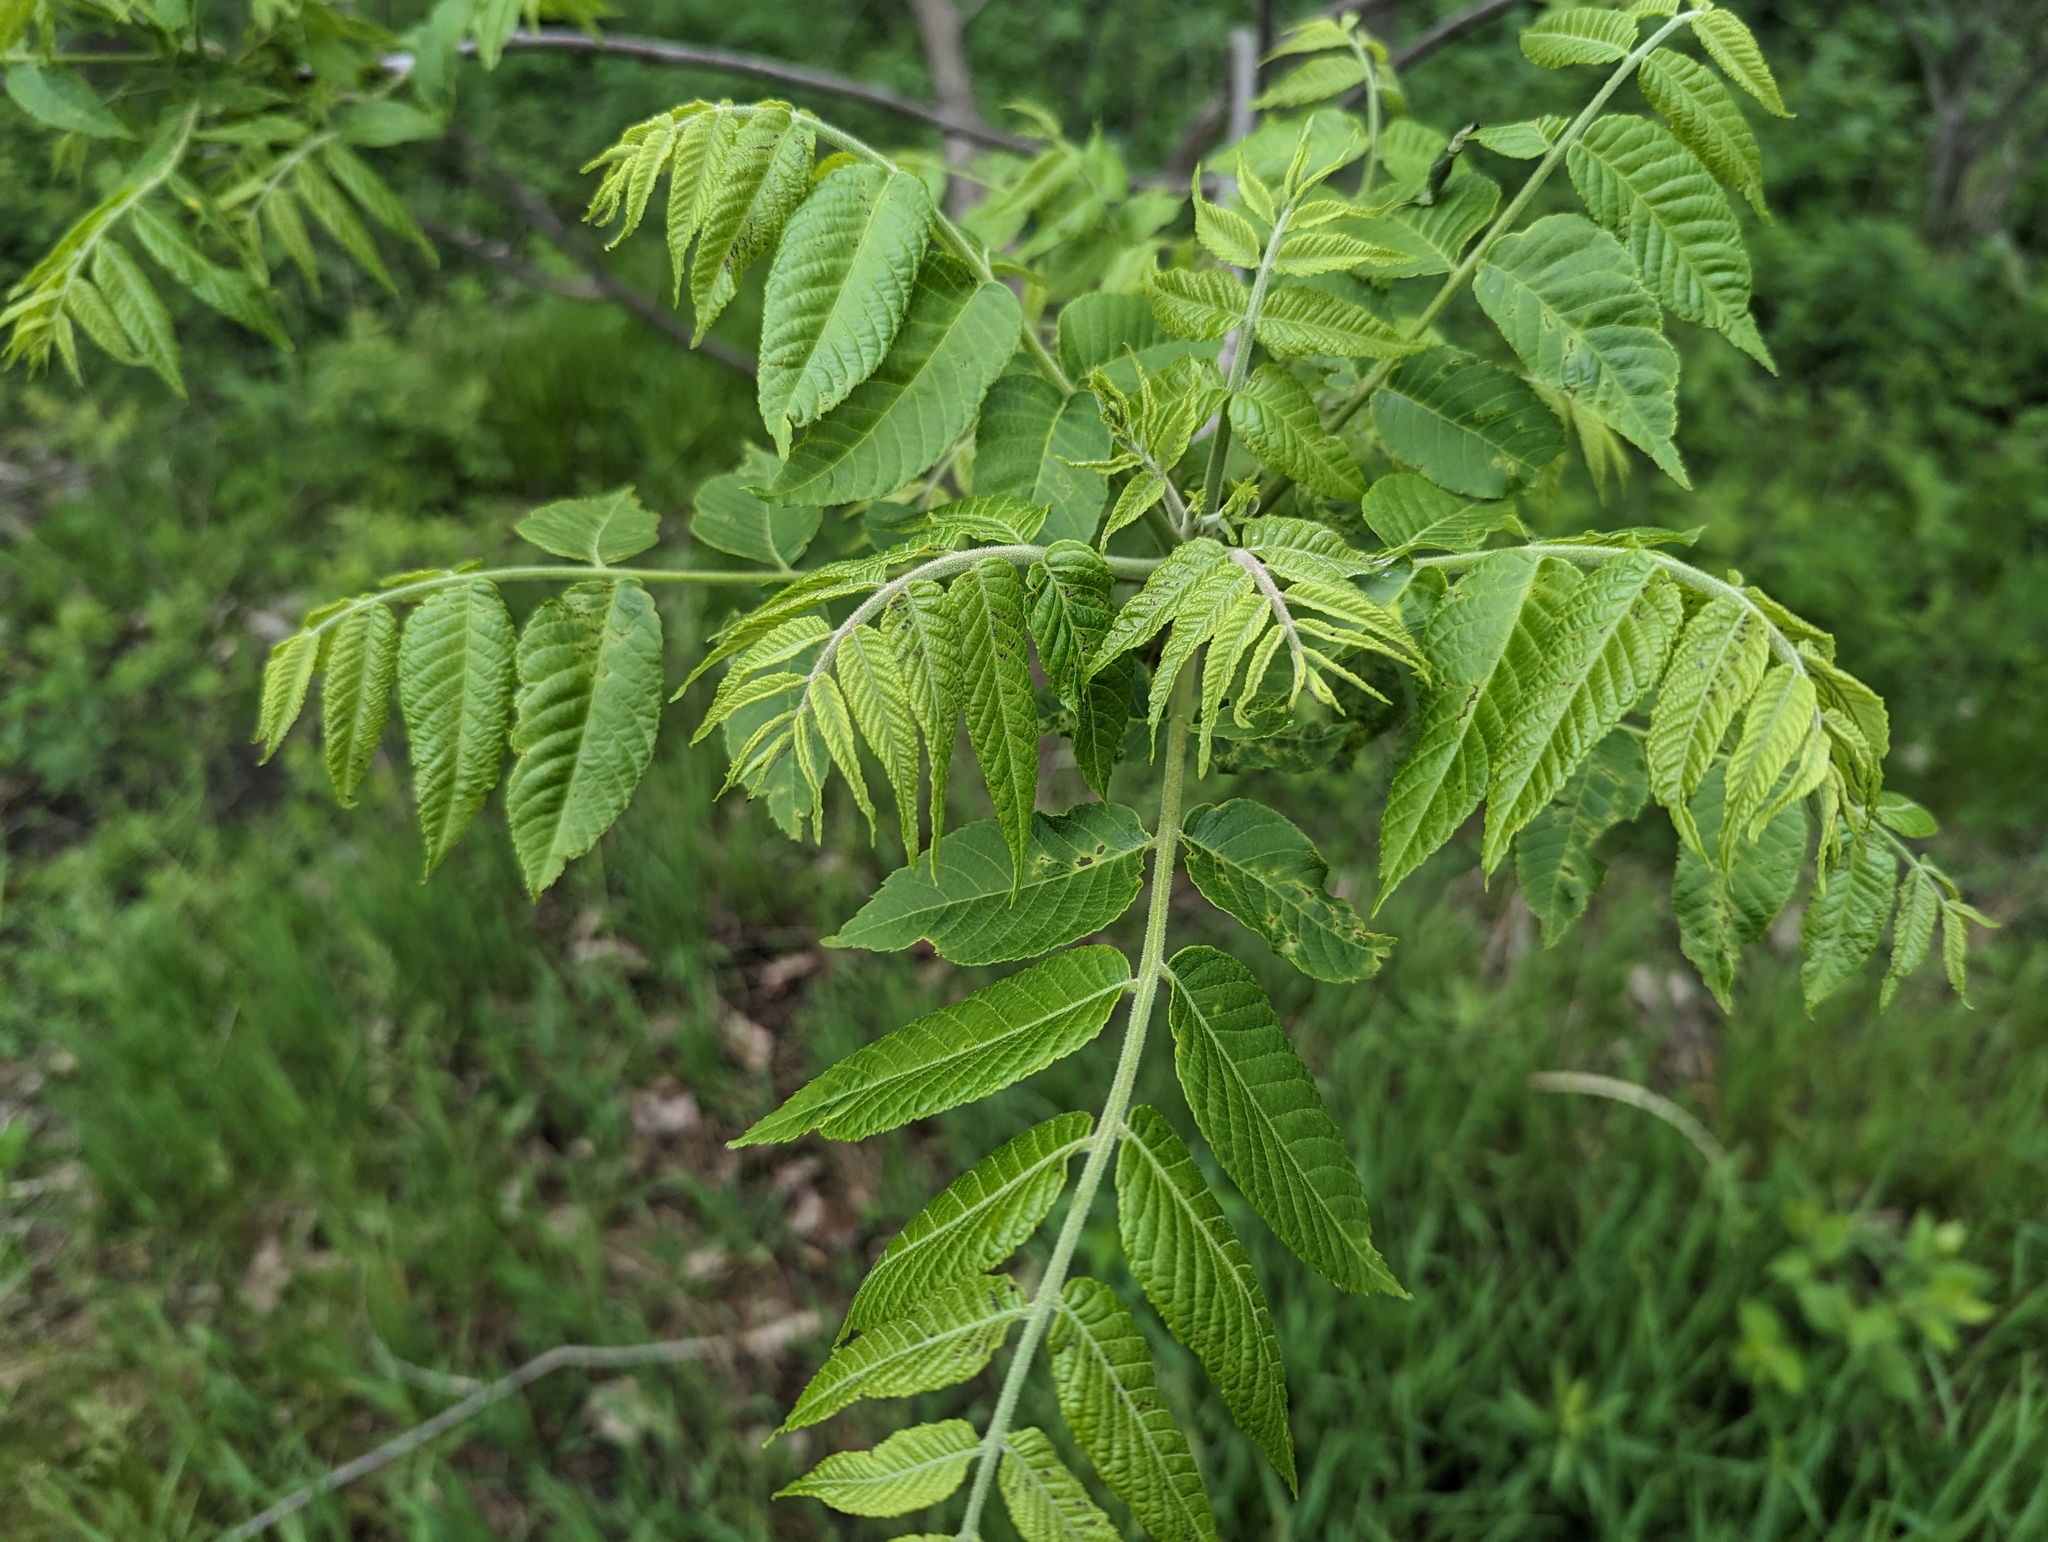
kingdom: Plantae
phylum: Tracheophyta
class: Magnoliopsida
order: Fagales
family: Juglandaceae
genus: Juglans
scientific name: Juglans nigra
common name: Black walnut
